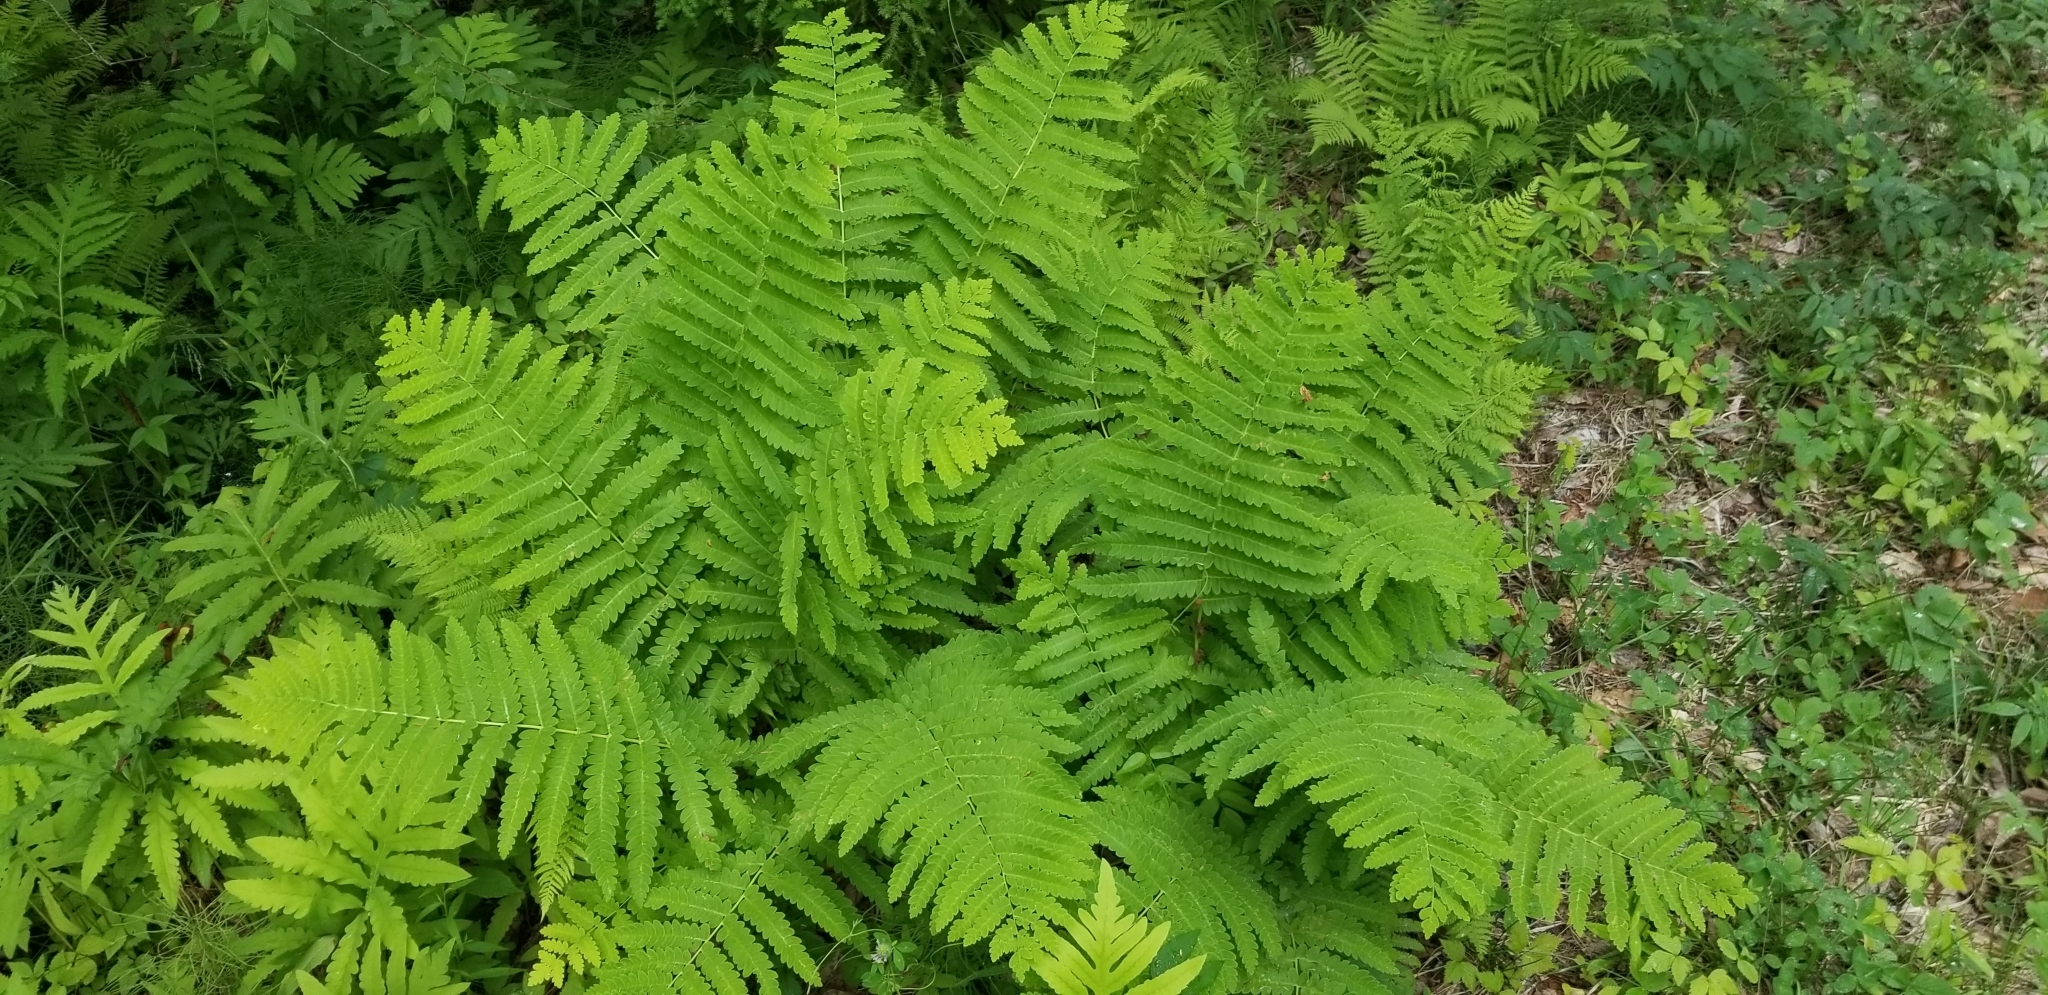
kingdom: Plantae
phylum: Tracheophyta
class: Polypodiopsida
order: Osmundales
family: Osmundaceae
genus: Claytosmunda
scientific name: Claytosmunda claytoniana
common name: Clayton's fern
